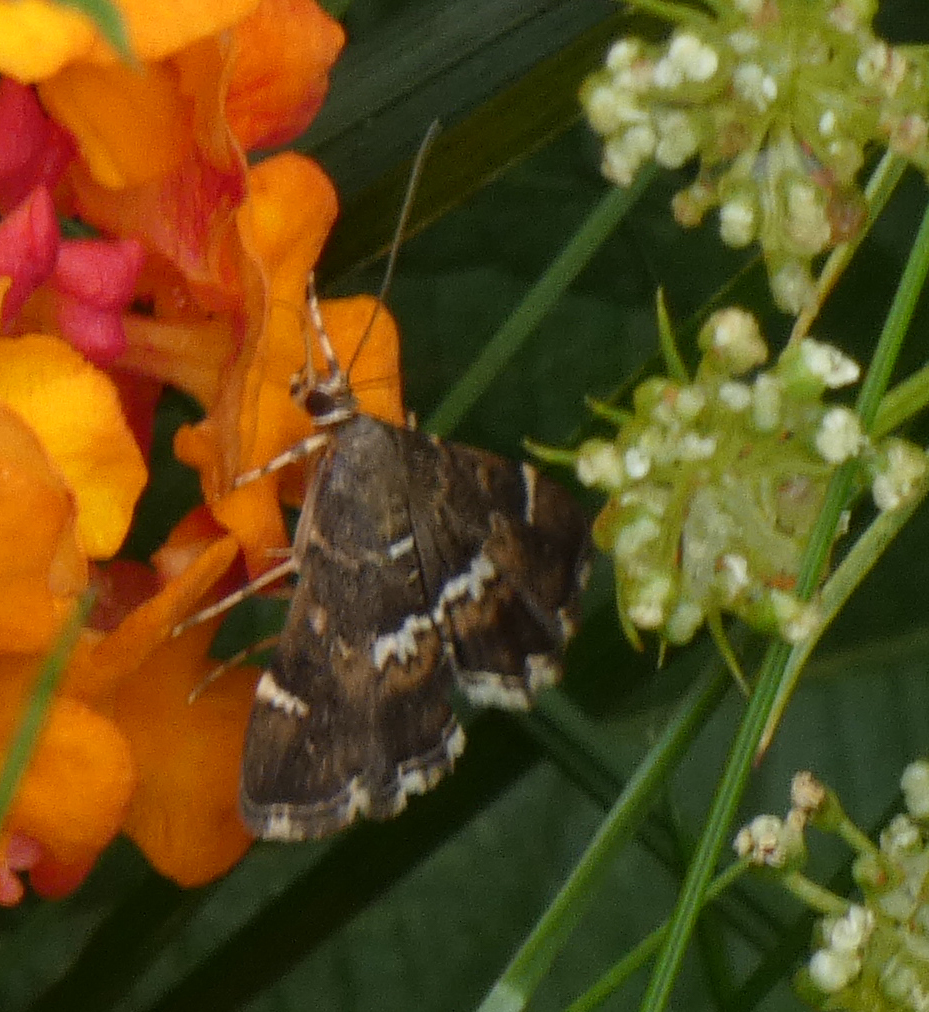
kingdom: Animalia
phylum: Arthropoda
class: Insecta
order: Lepidoptera
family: Crambidae
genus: Hymenia
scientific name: Hymenia perspectalis
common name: Spotted beet webworm
